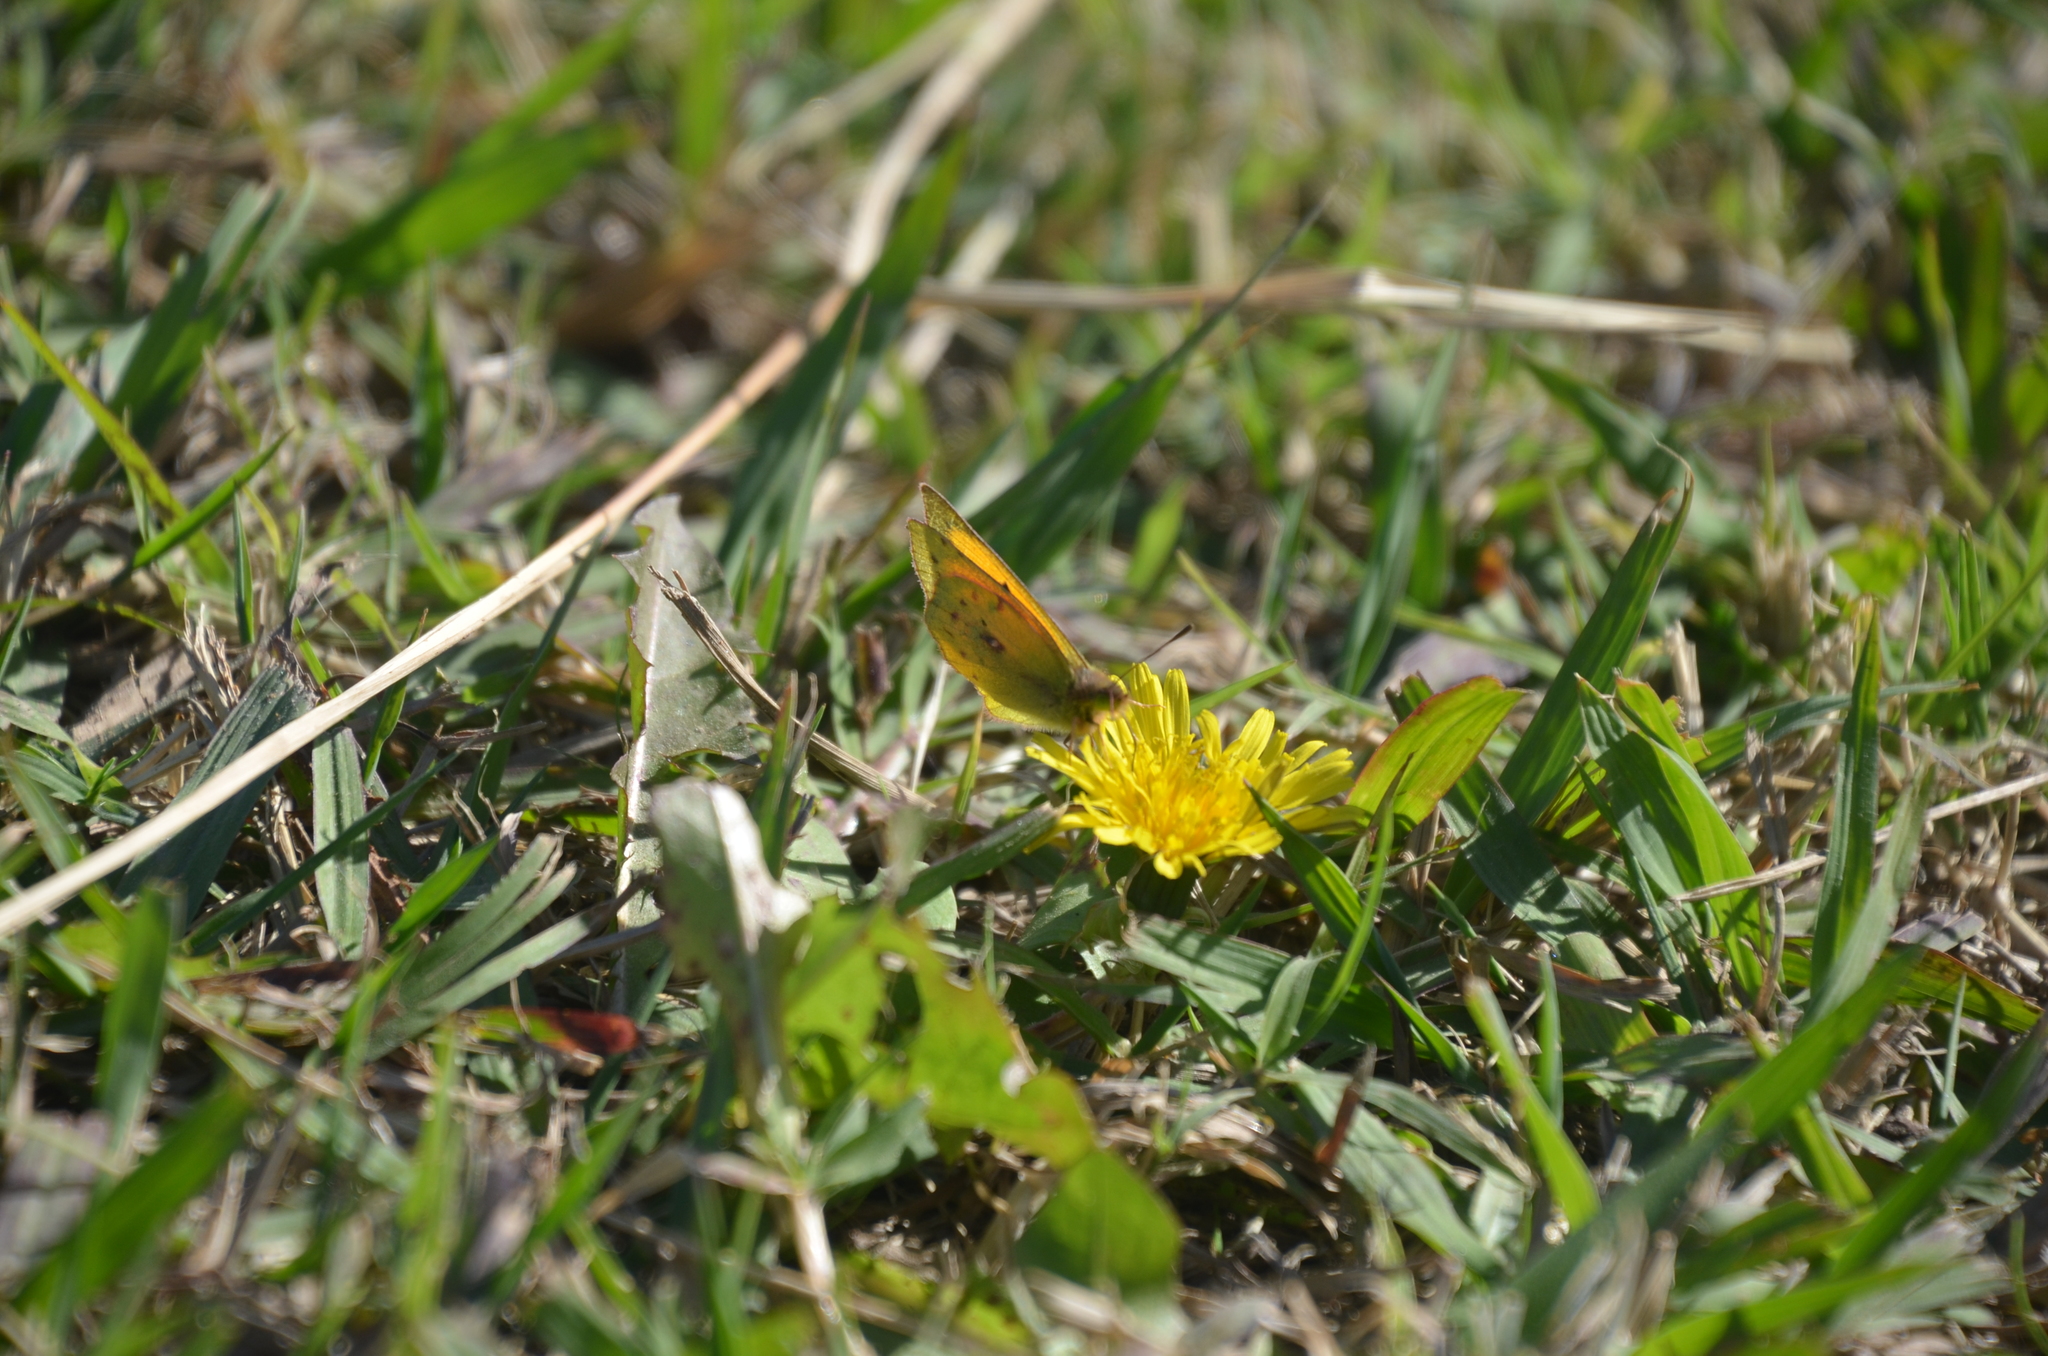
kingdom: Animalia
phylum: Arthropoda
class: Insecta
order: Lepidoptera
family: Pieridae
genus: Colias
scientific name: Colias lesbia
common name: Lesbia clouded yellow
